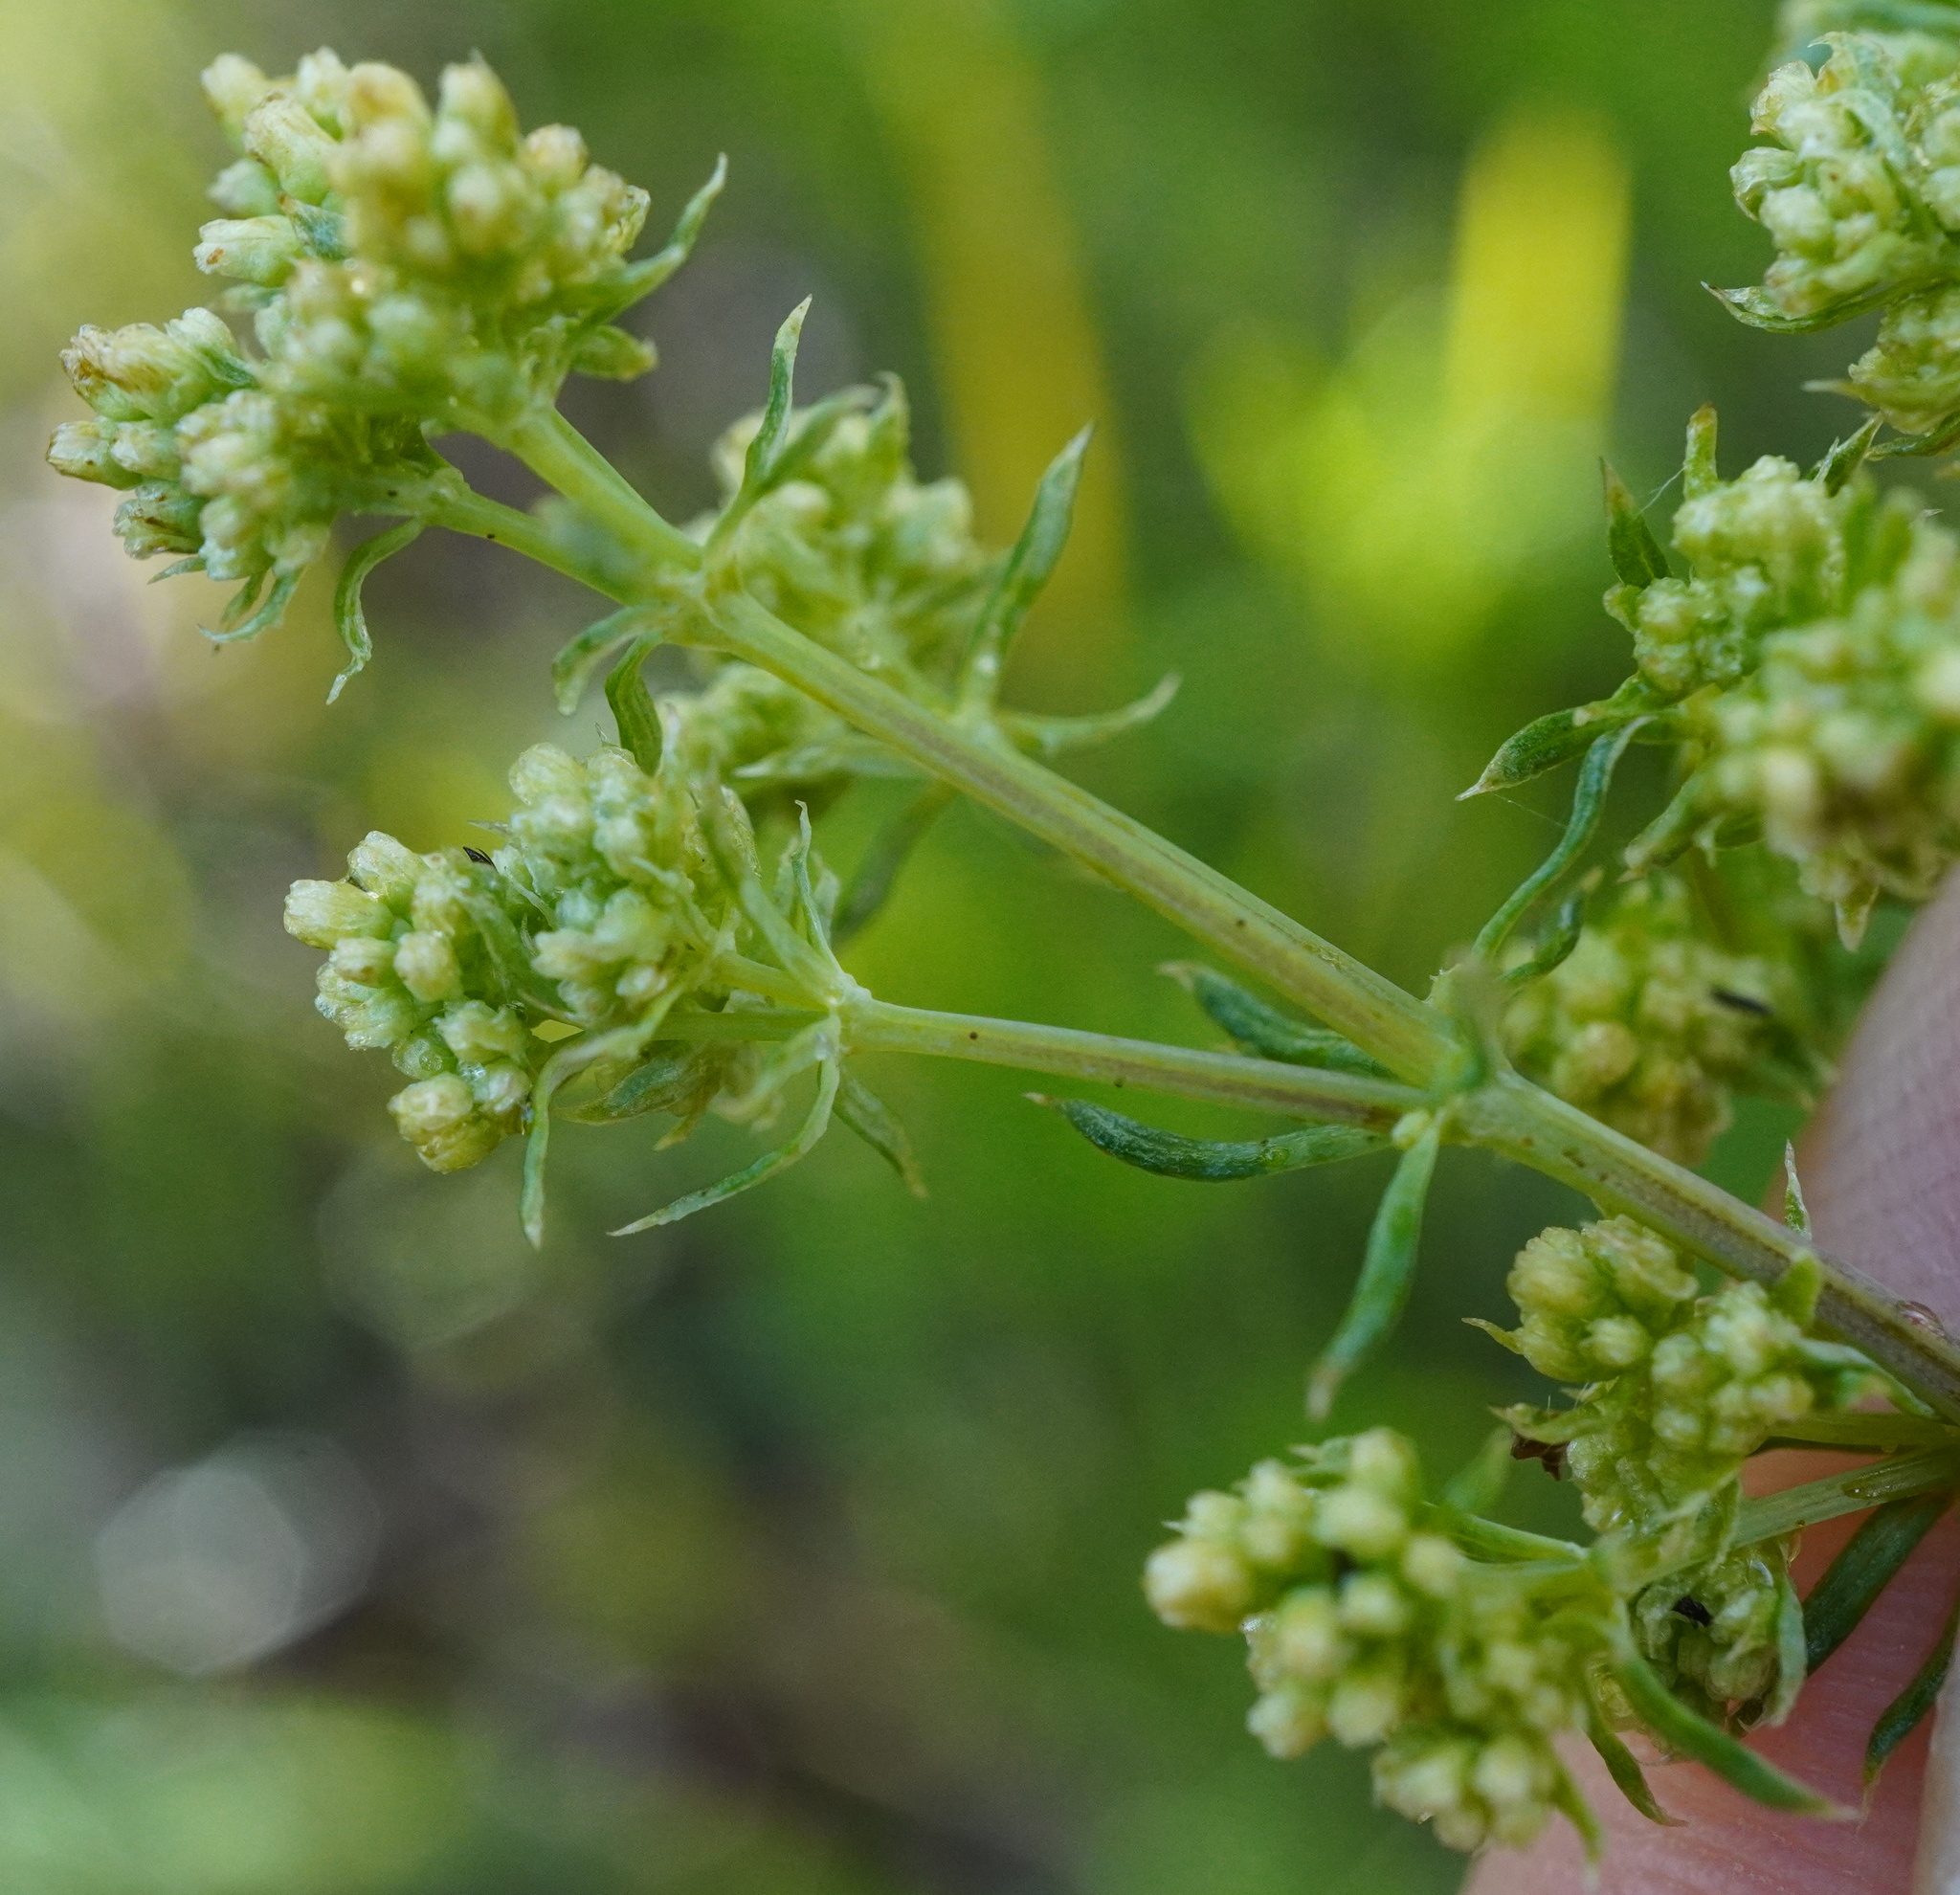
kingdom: Plantae
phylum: Tracheophyta
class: Magnoliopsida
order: Gentianales
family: Rubiaceae
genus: Galium
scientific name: Galium glaucum
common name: Waxy bedstraw
